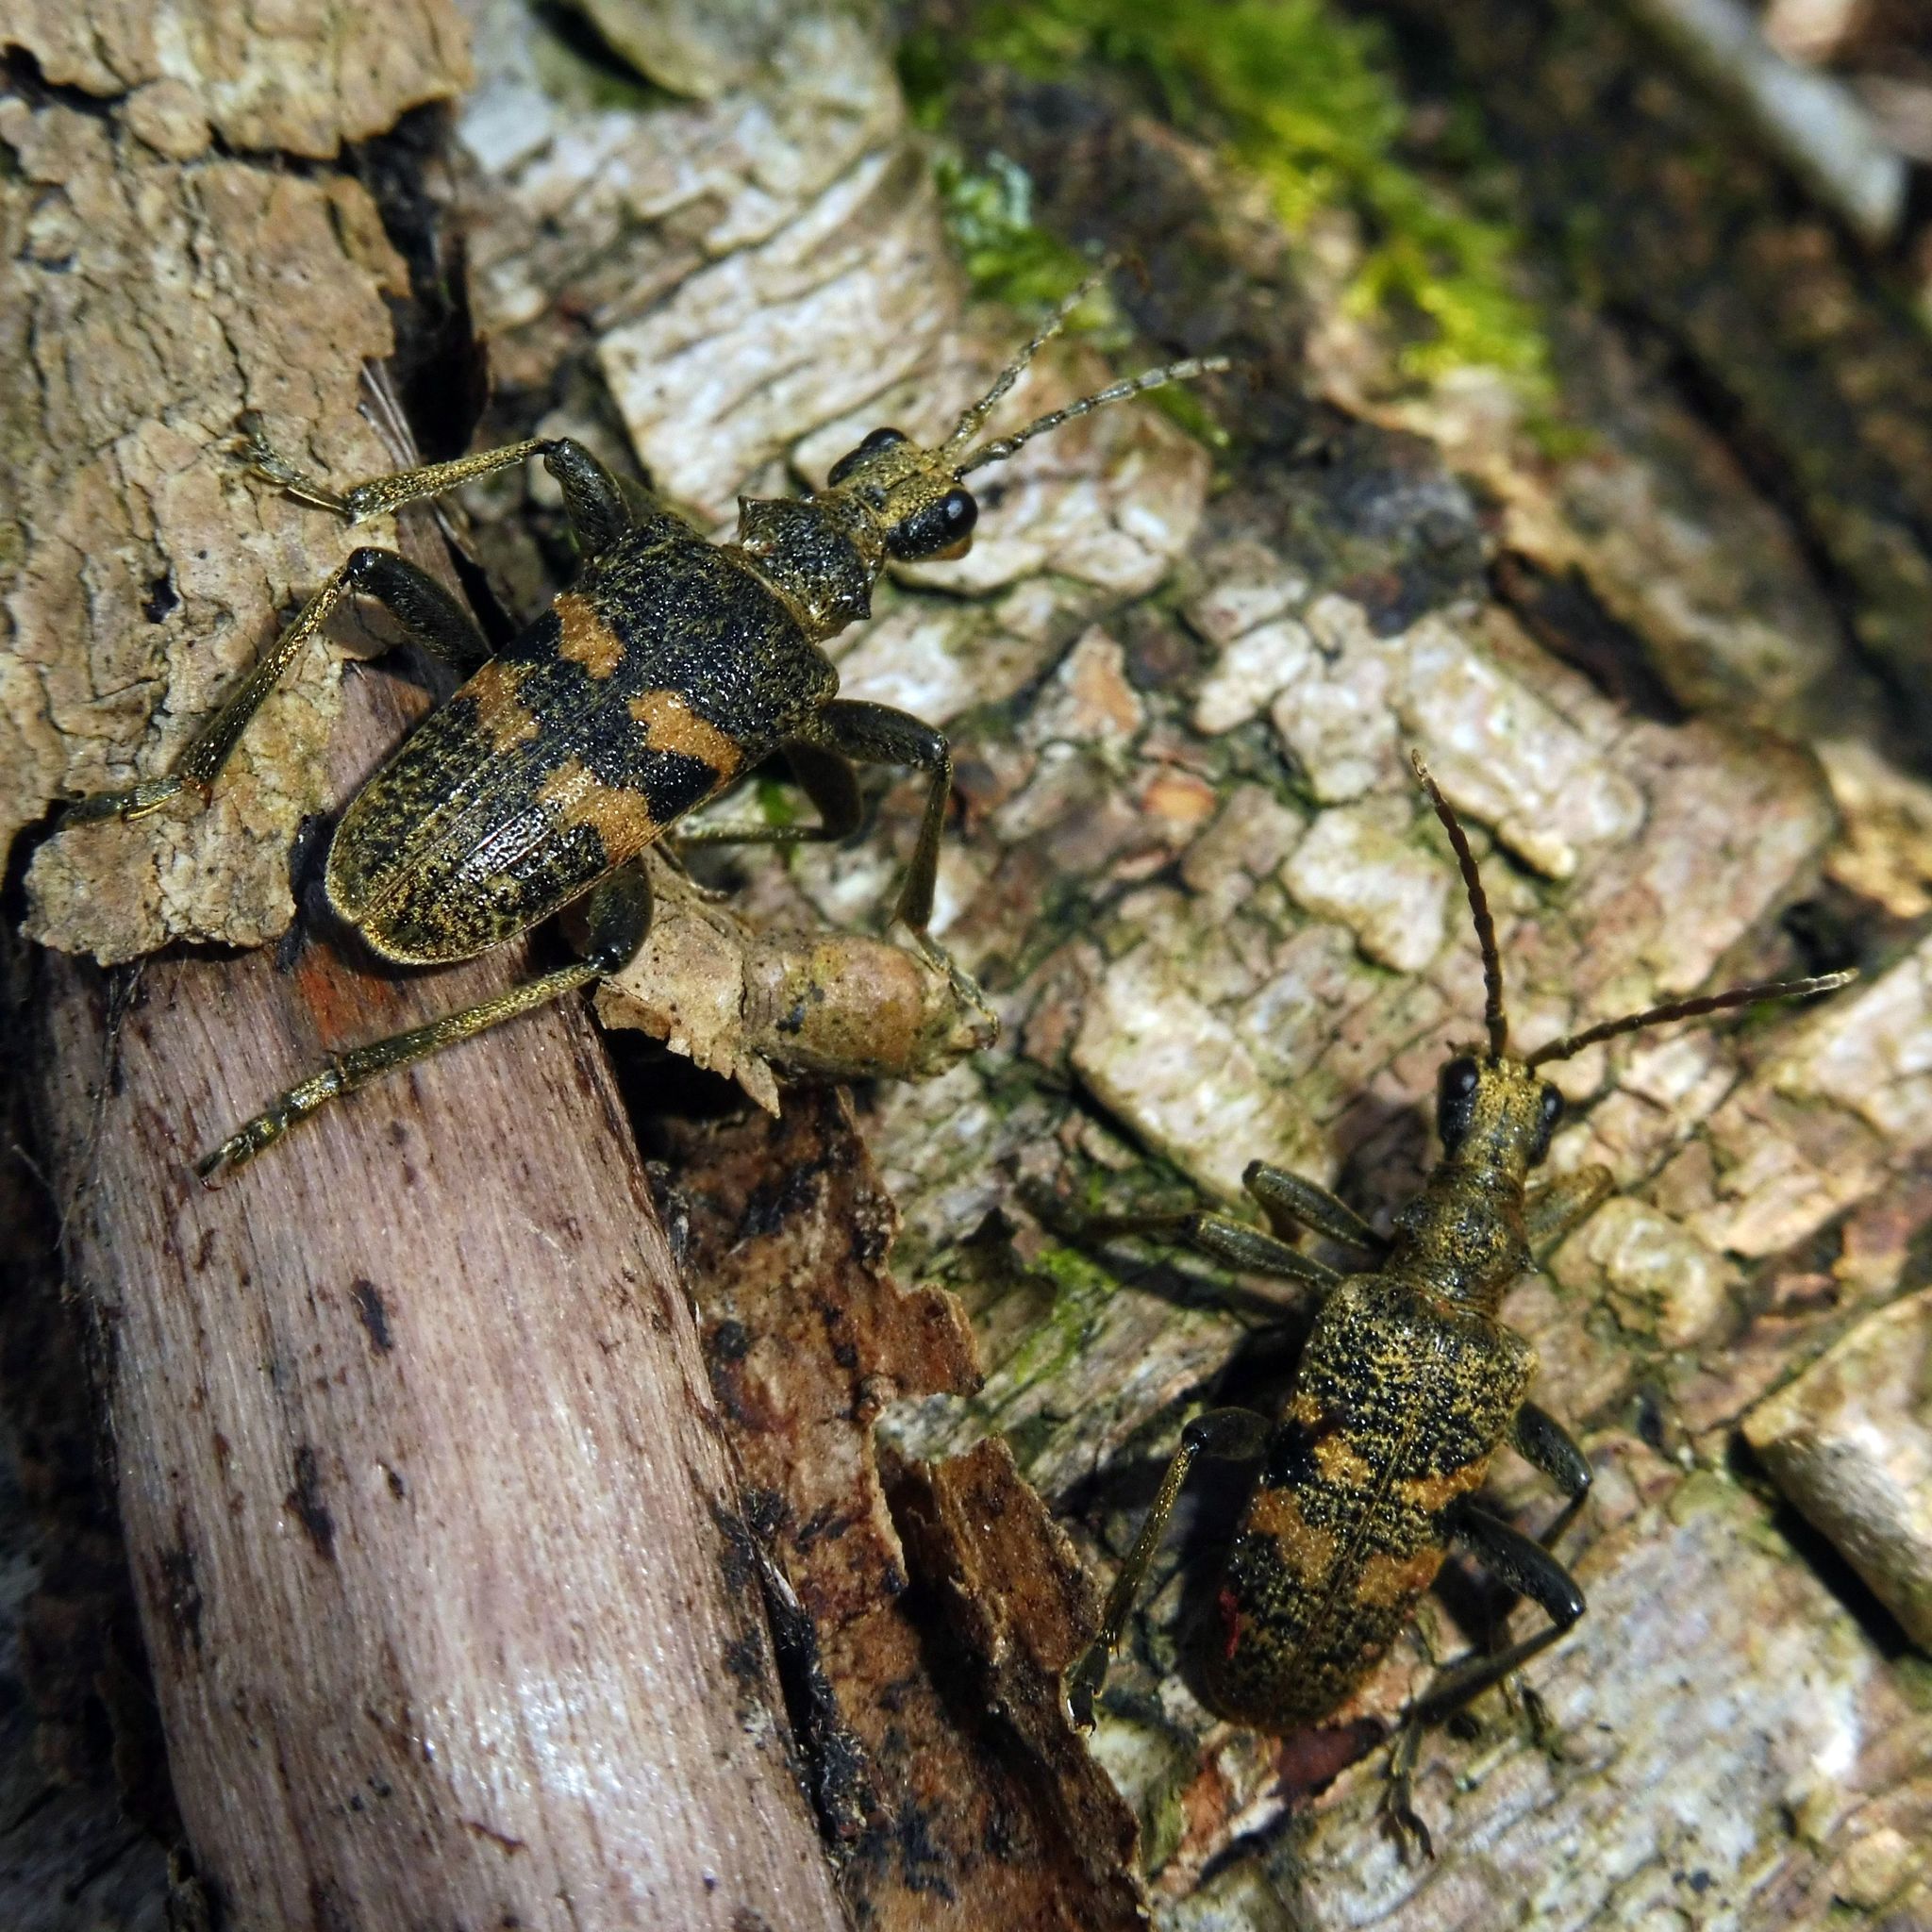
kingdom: Animalia
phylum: Arthropoda
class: Insecta
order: Coleoptera
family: Cerambycidae
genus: Rhagium
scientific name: Rhagium mordax
